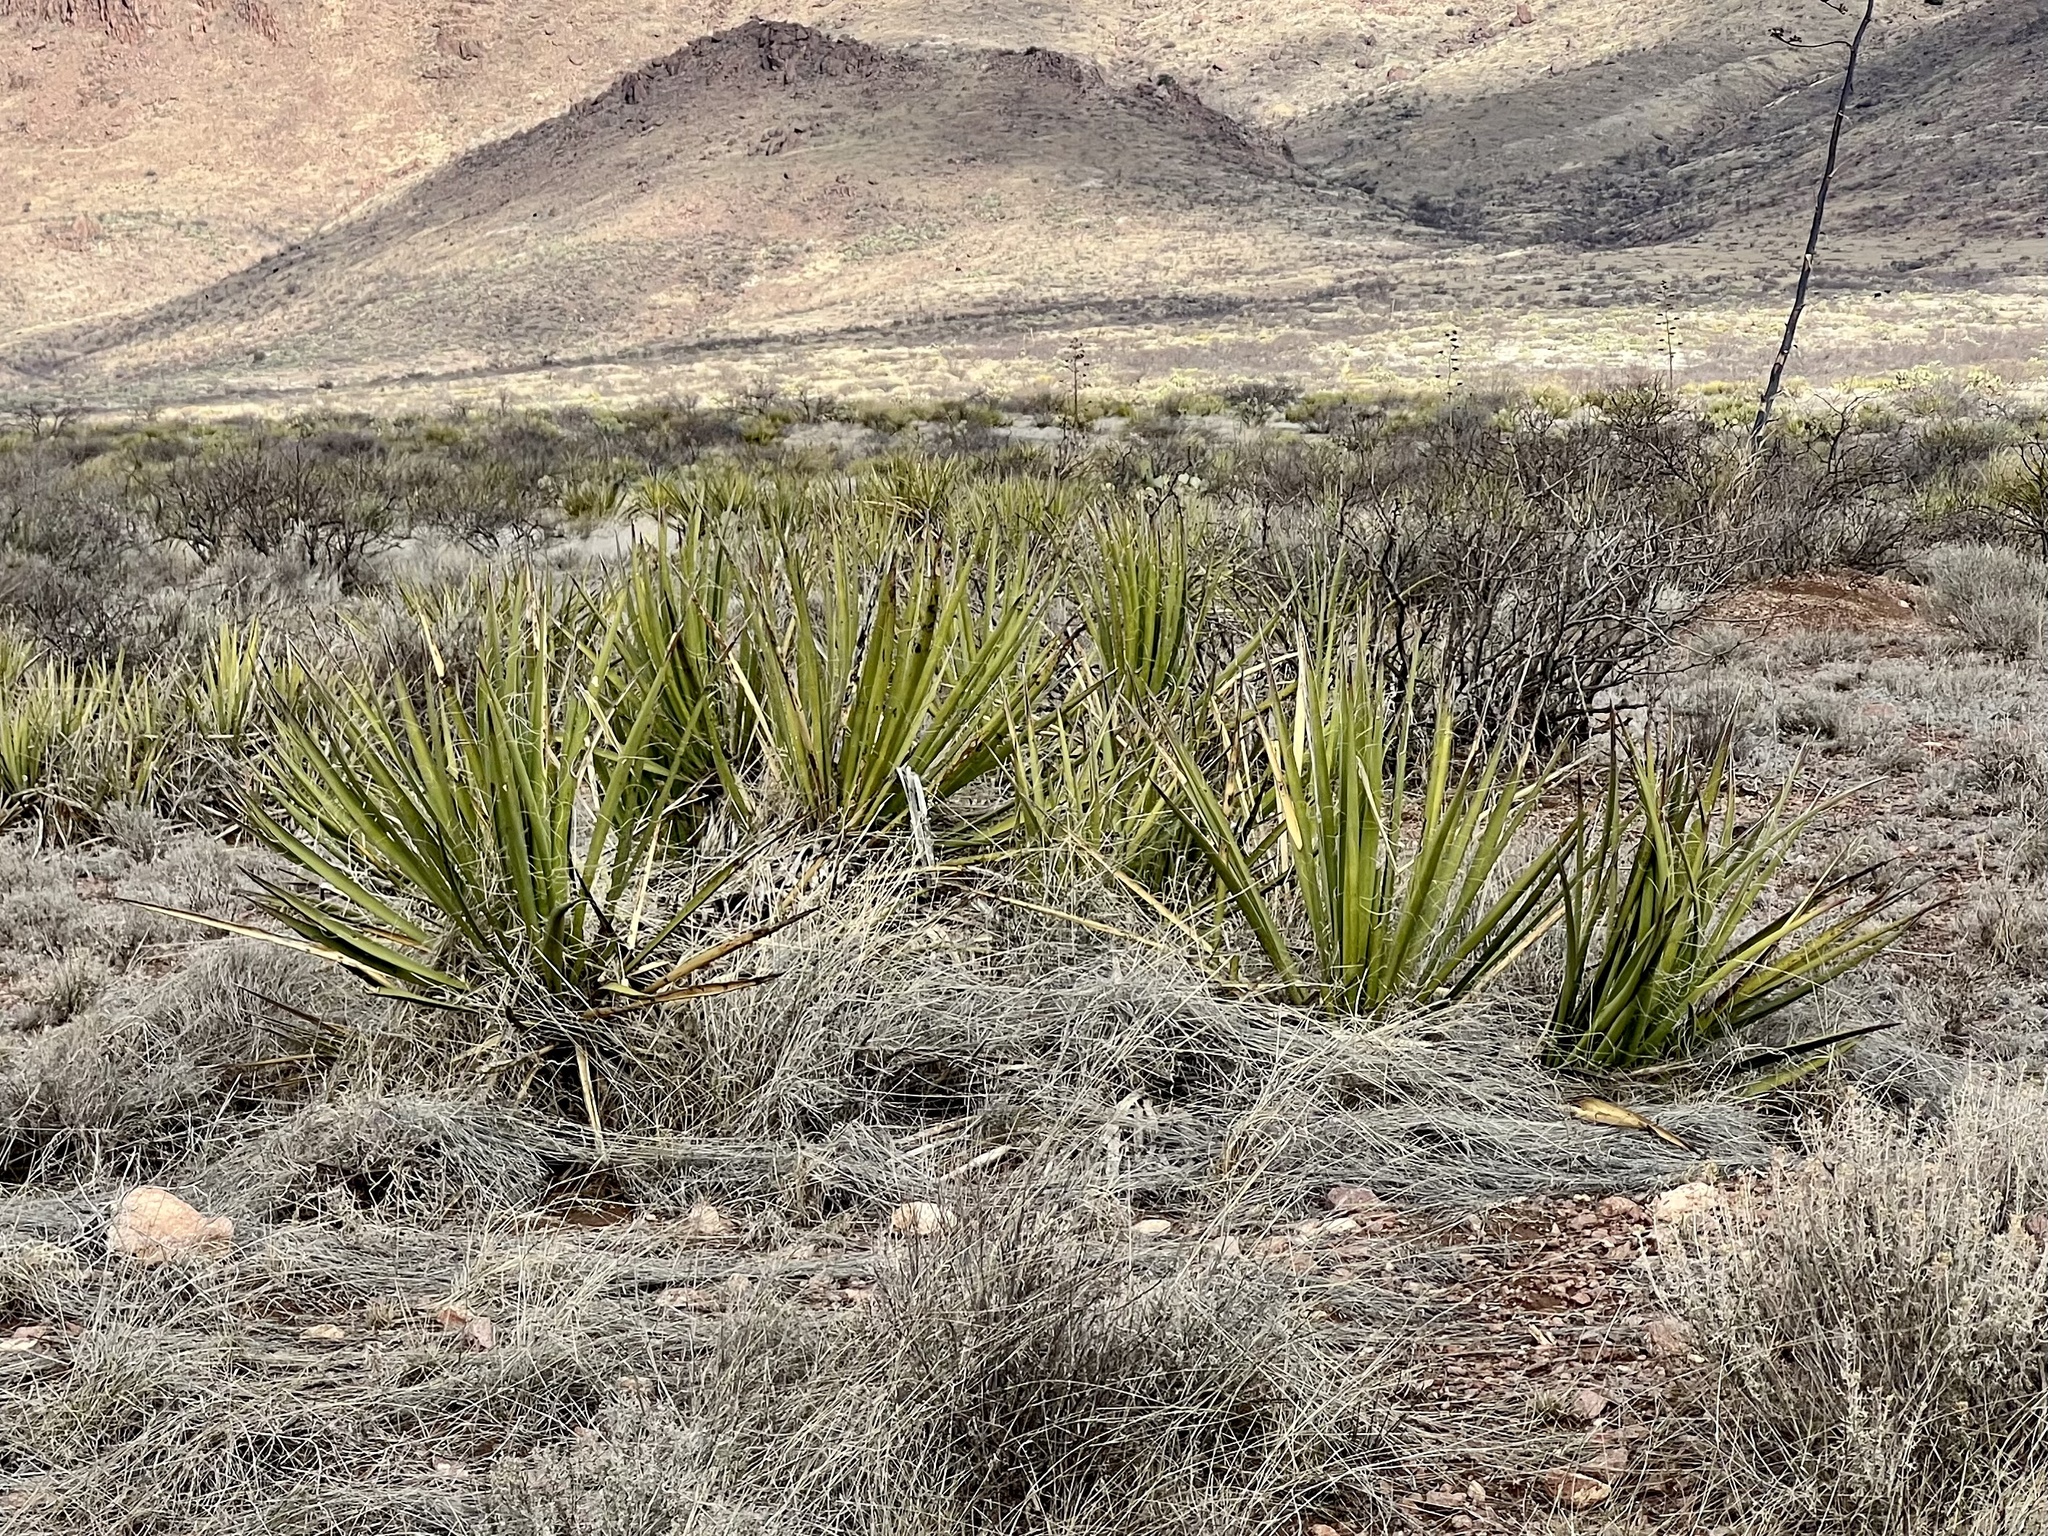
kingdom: Plantae
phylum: Tracheophyta
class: Liliopsida
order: Asparagales
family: Asparagaceae
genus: Yucca
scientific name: Yucca baccata
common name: Banana yucca
